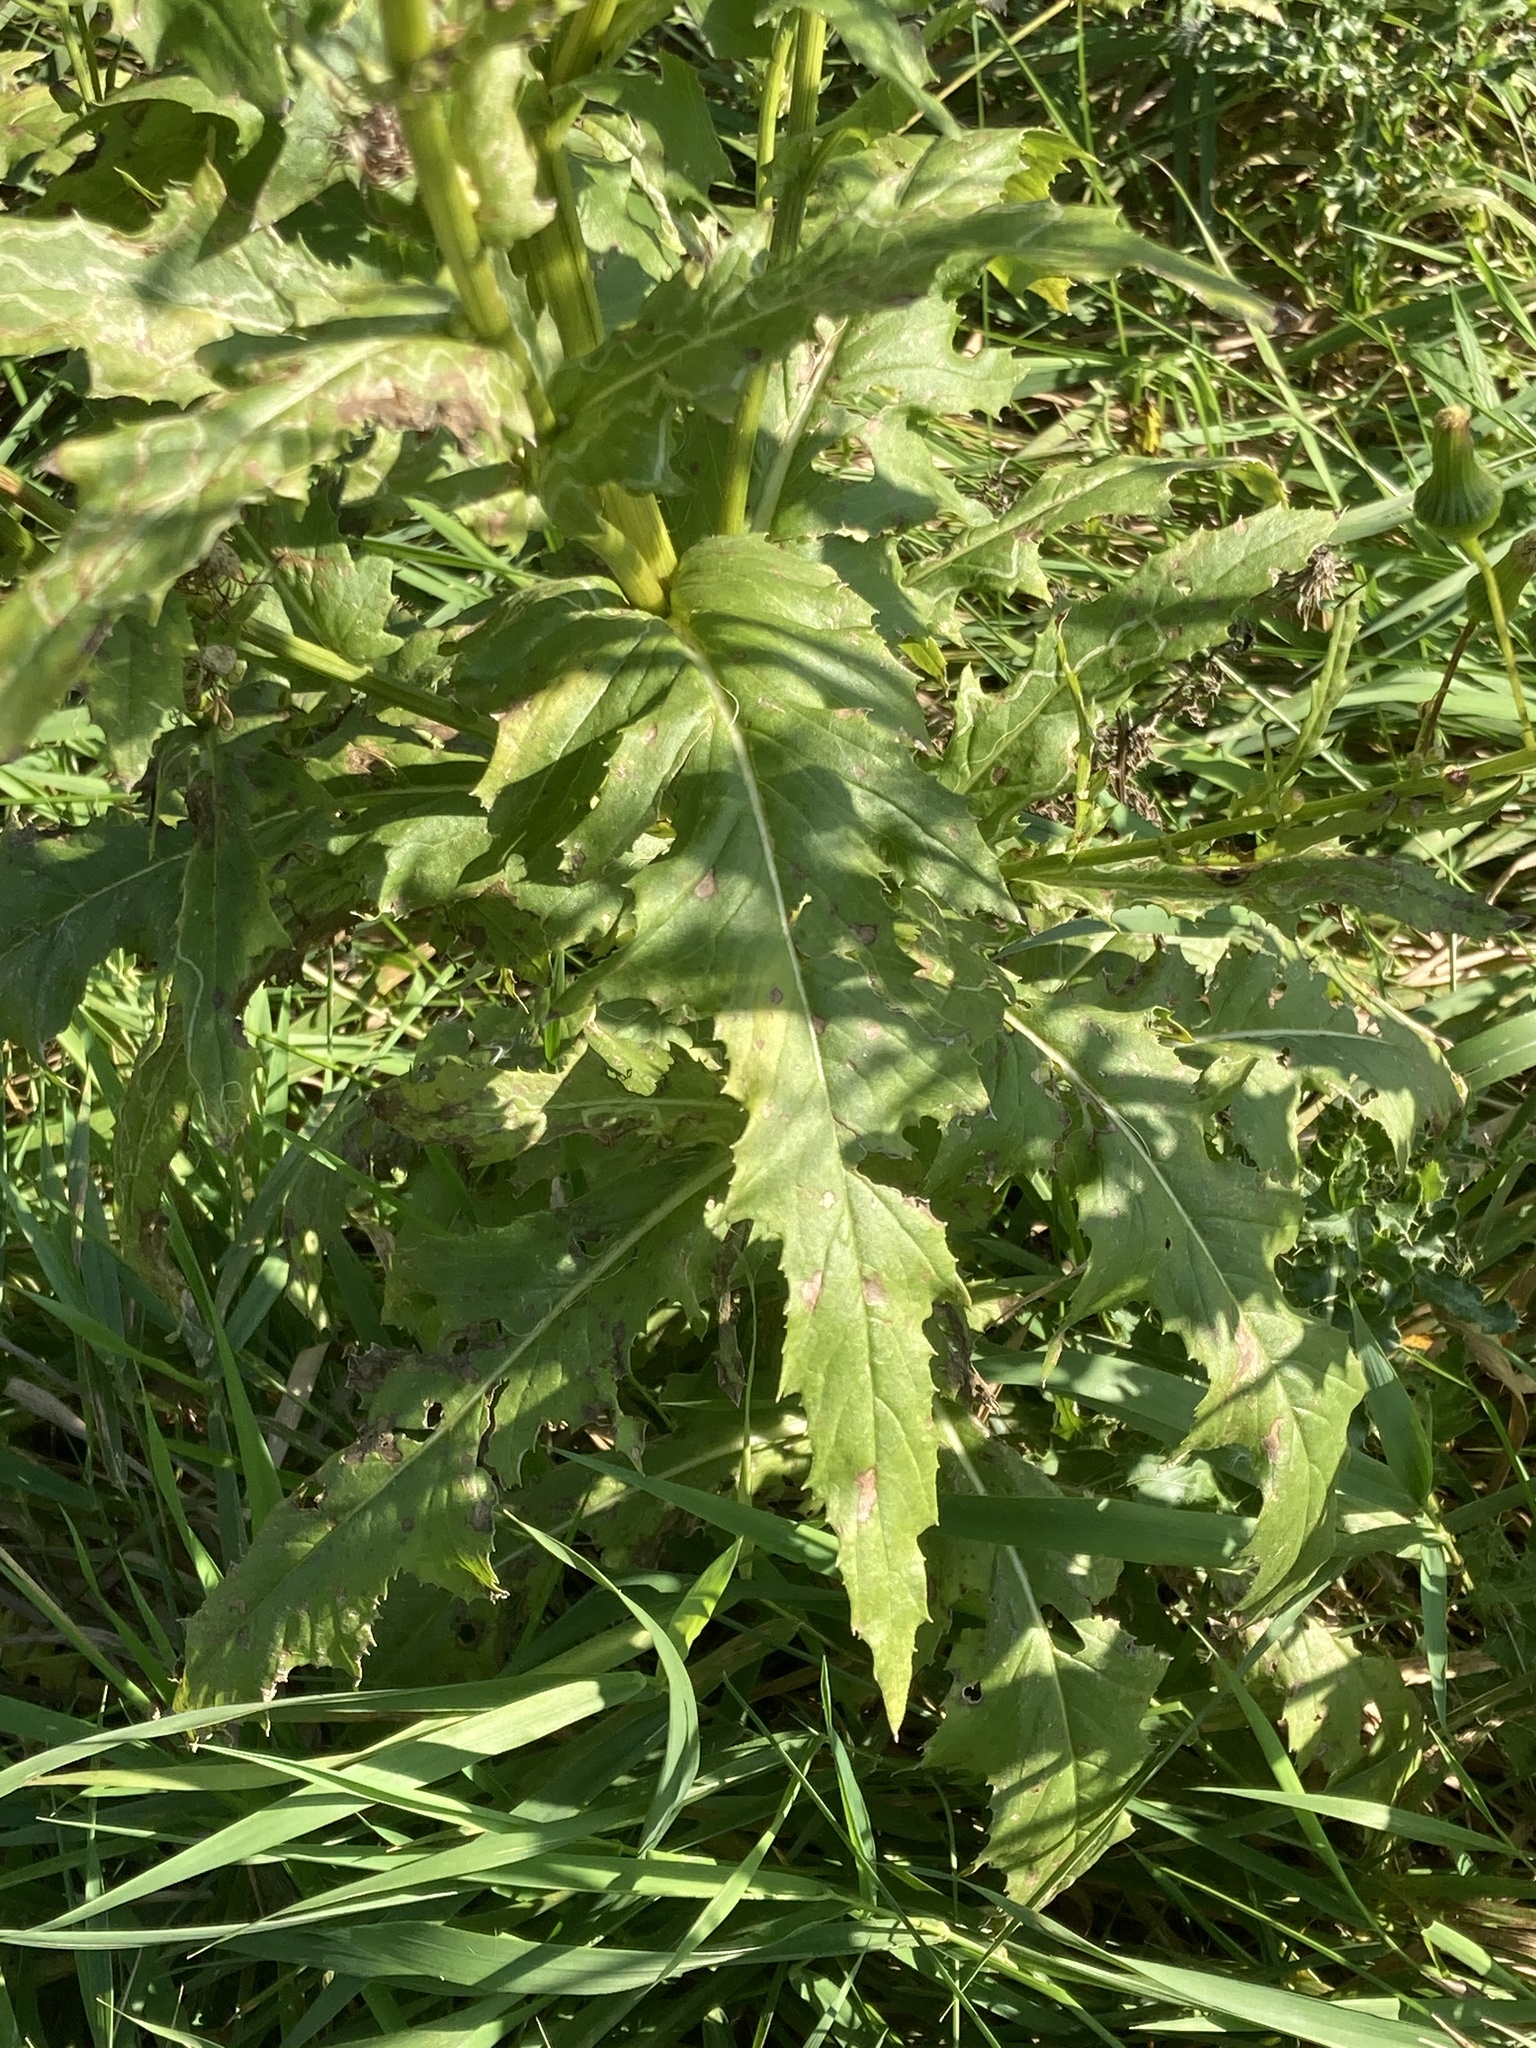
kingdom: Plantae
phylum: Tracheophyta
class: Magnoliopsida
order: Asterales
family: Asteraceae
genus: Erechtites
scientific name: Erechtites hieraciifolius
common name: American burnweed
